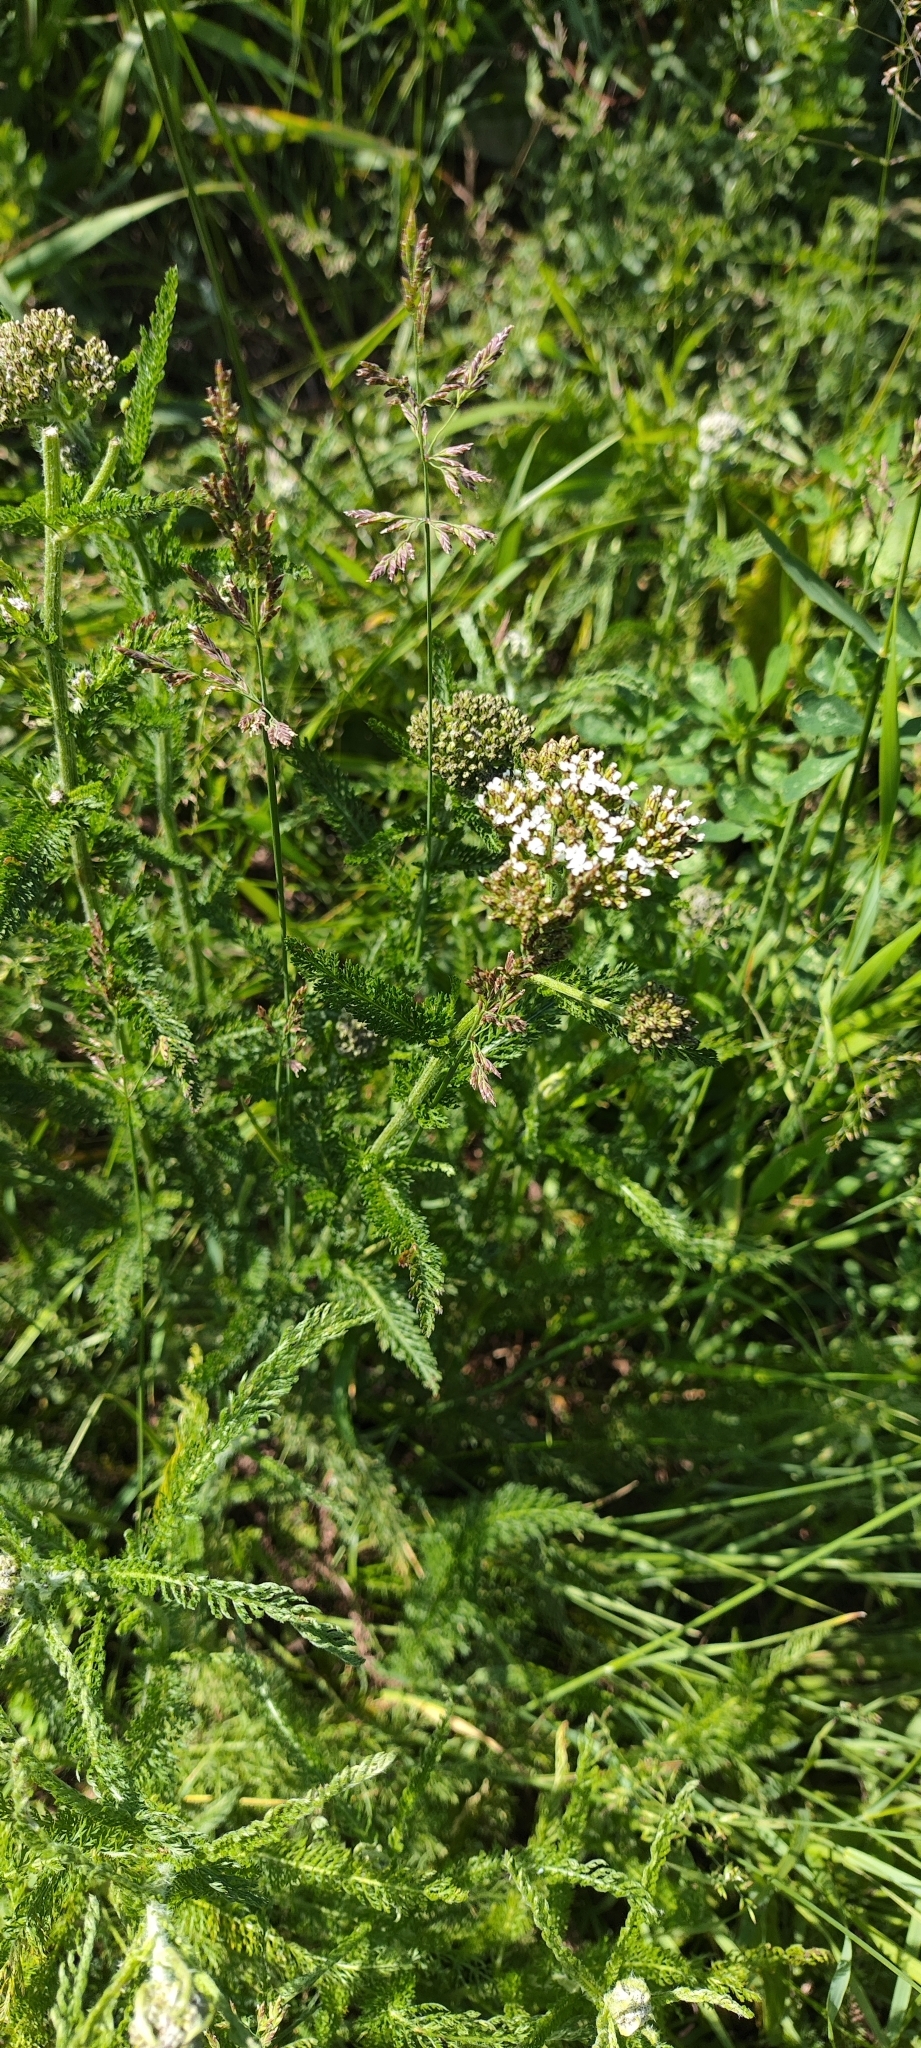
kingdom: Plantae
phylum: Tracheophyta
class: Magnoliopsida
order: Asterales
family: Asteraceae
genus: Achillea
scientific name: Achillea millefolium
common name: Yarrow
